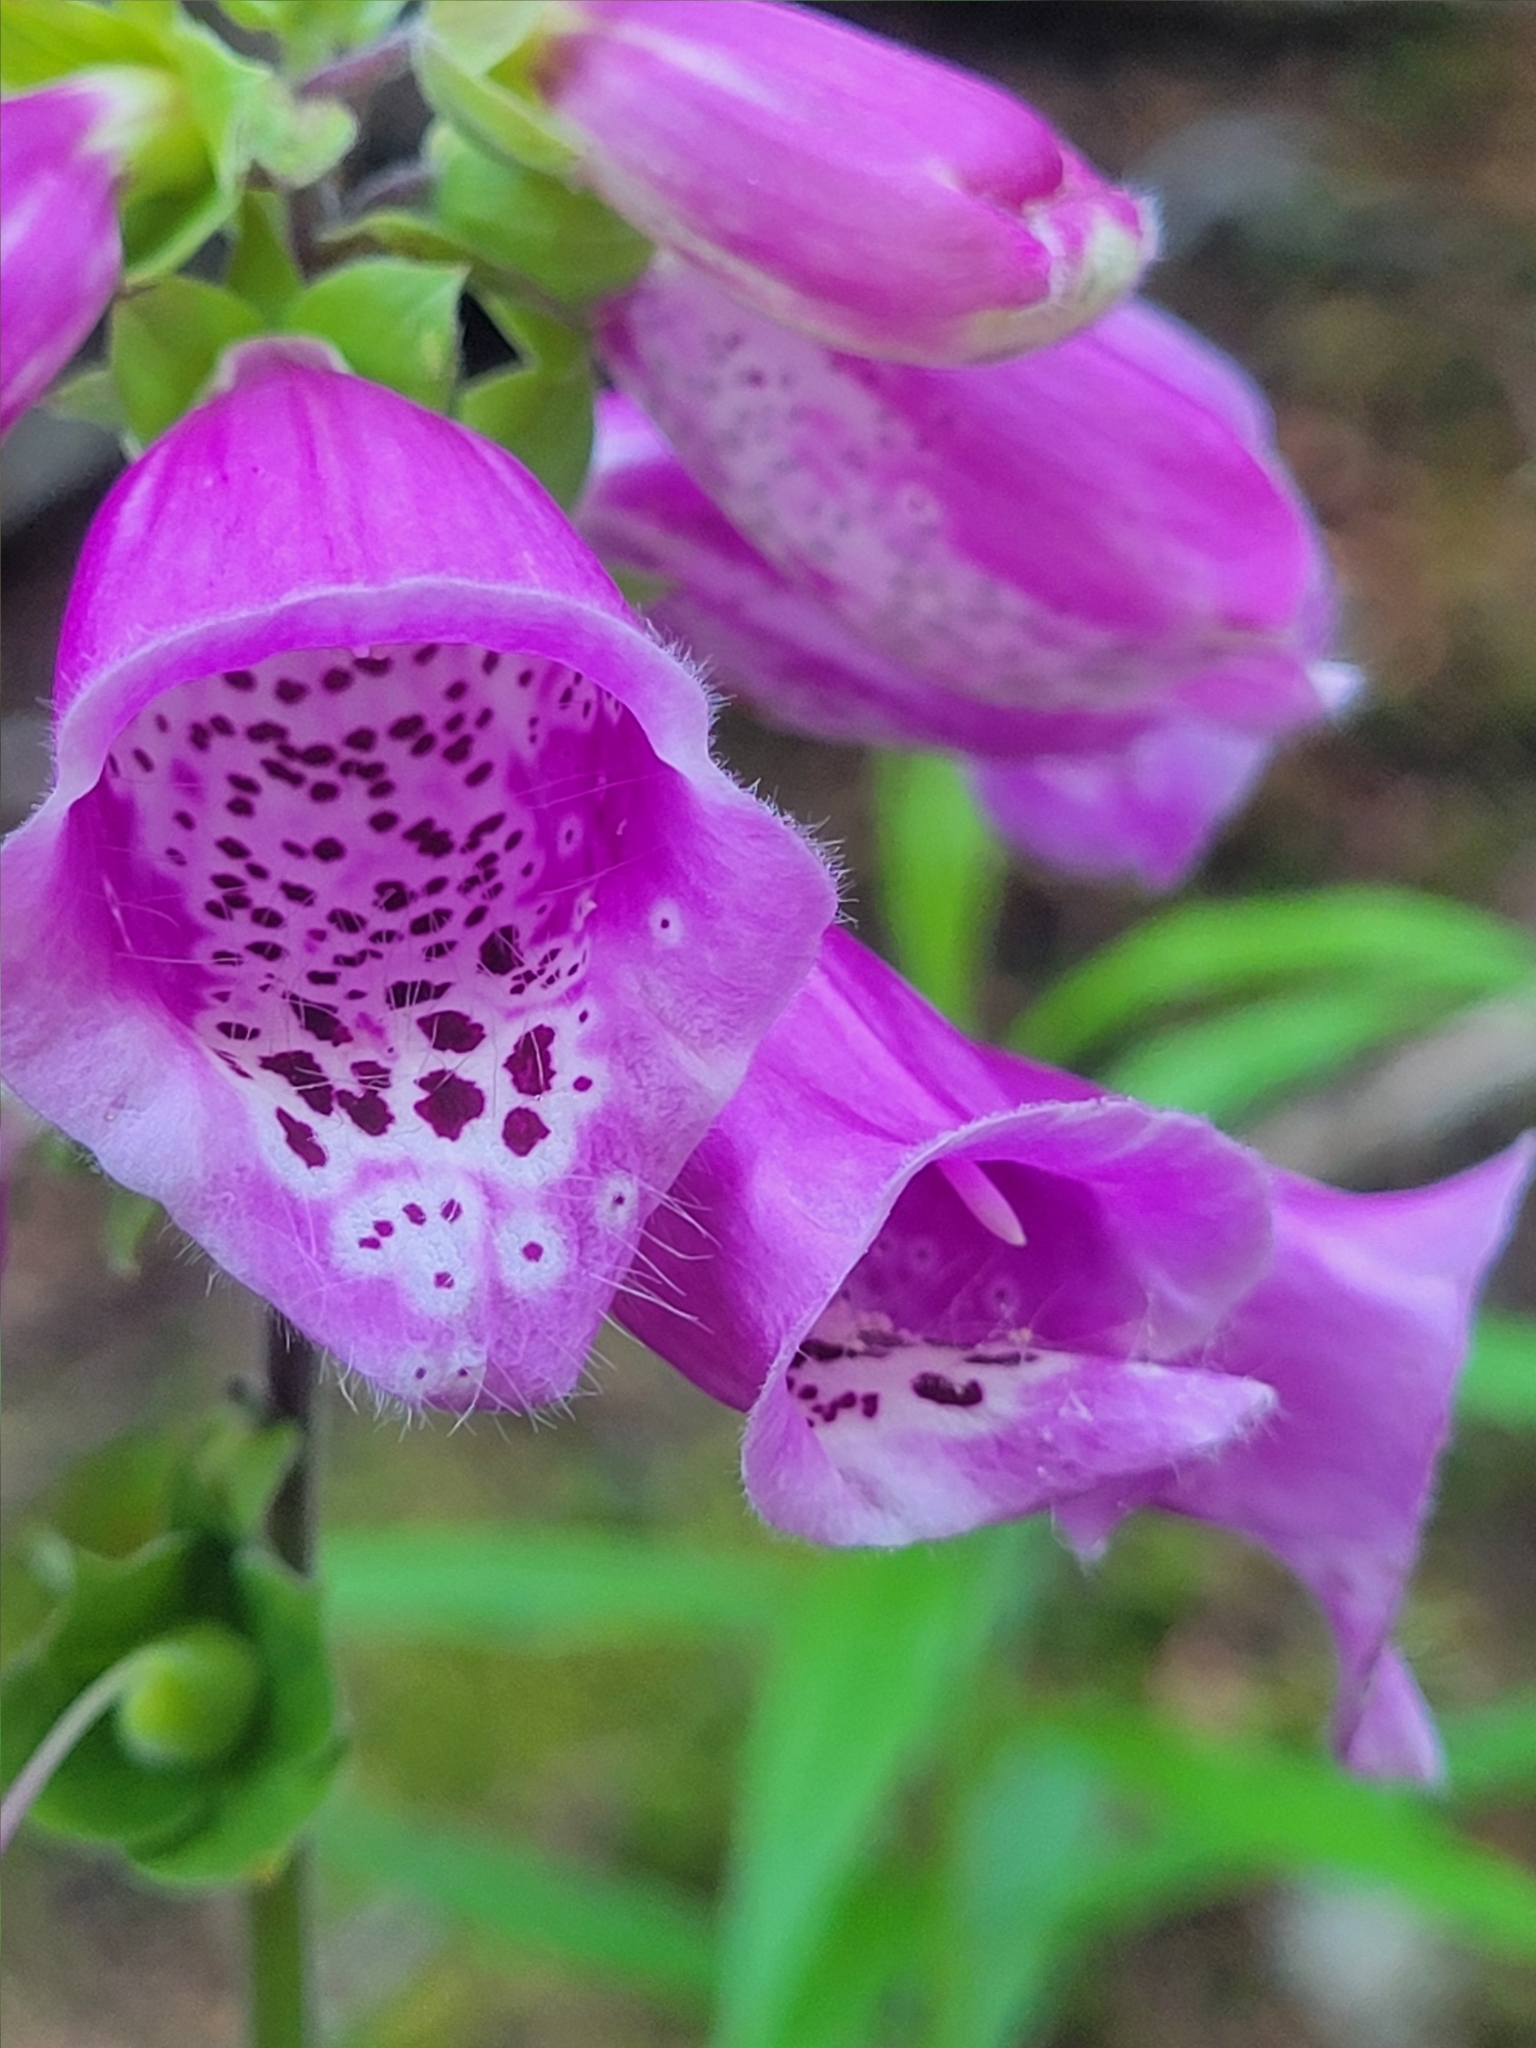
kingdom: Plantae
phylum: Tracheophyta
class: Magnoliopsida
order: Lamiales
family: Plantaginaceae
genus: Digitalis
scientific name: Digitalis purpurea
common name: Foxglove
